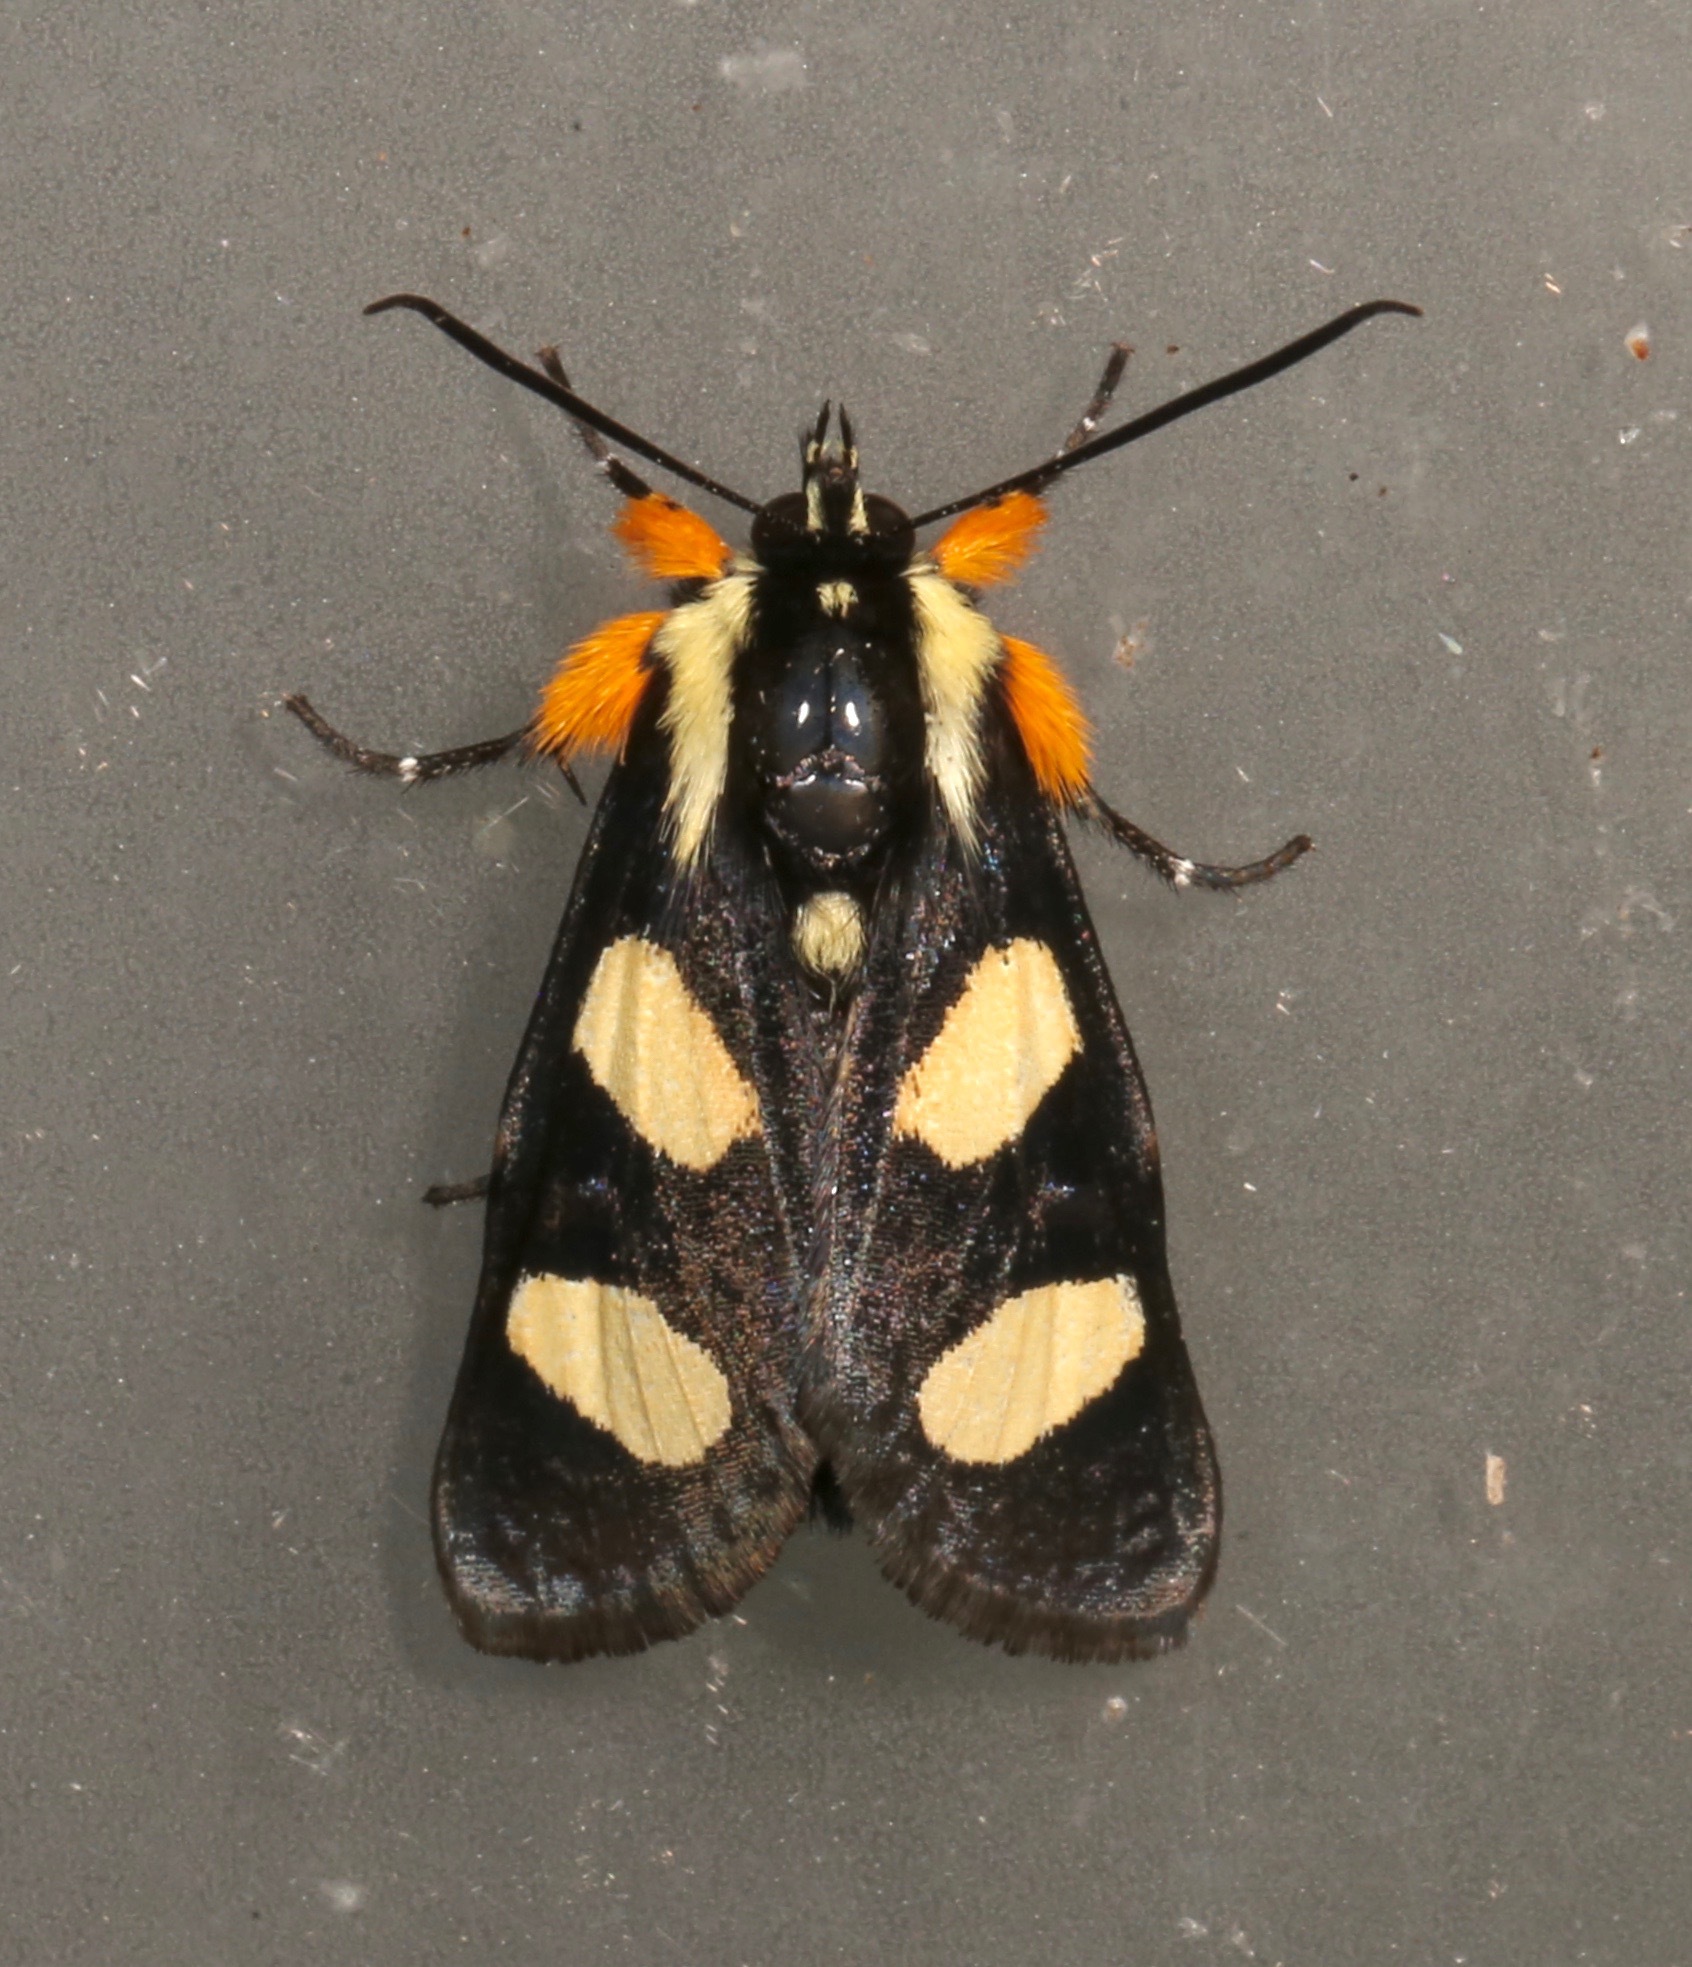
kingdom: Animalia
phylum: Arthropoda
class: Insecta
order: Lepidoptera
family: Noctuidae
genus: Alypia
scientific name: Alypia wittfeldii
